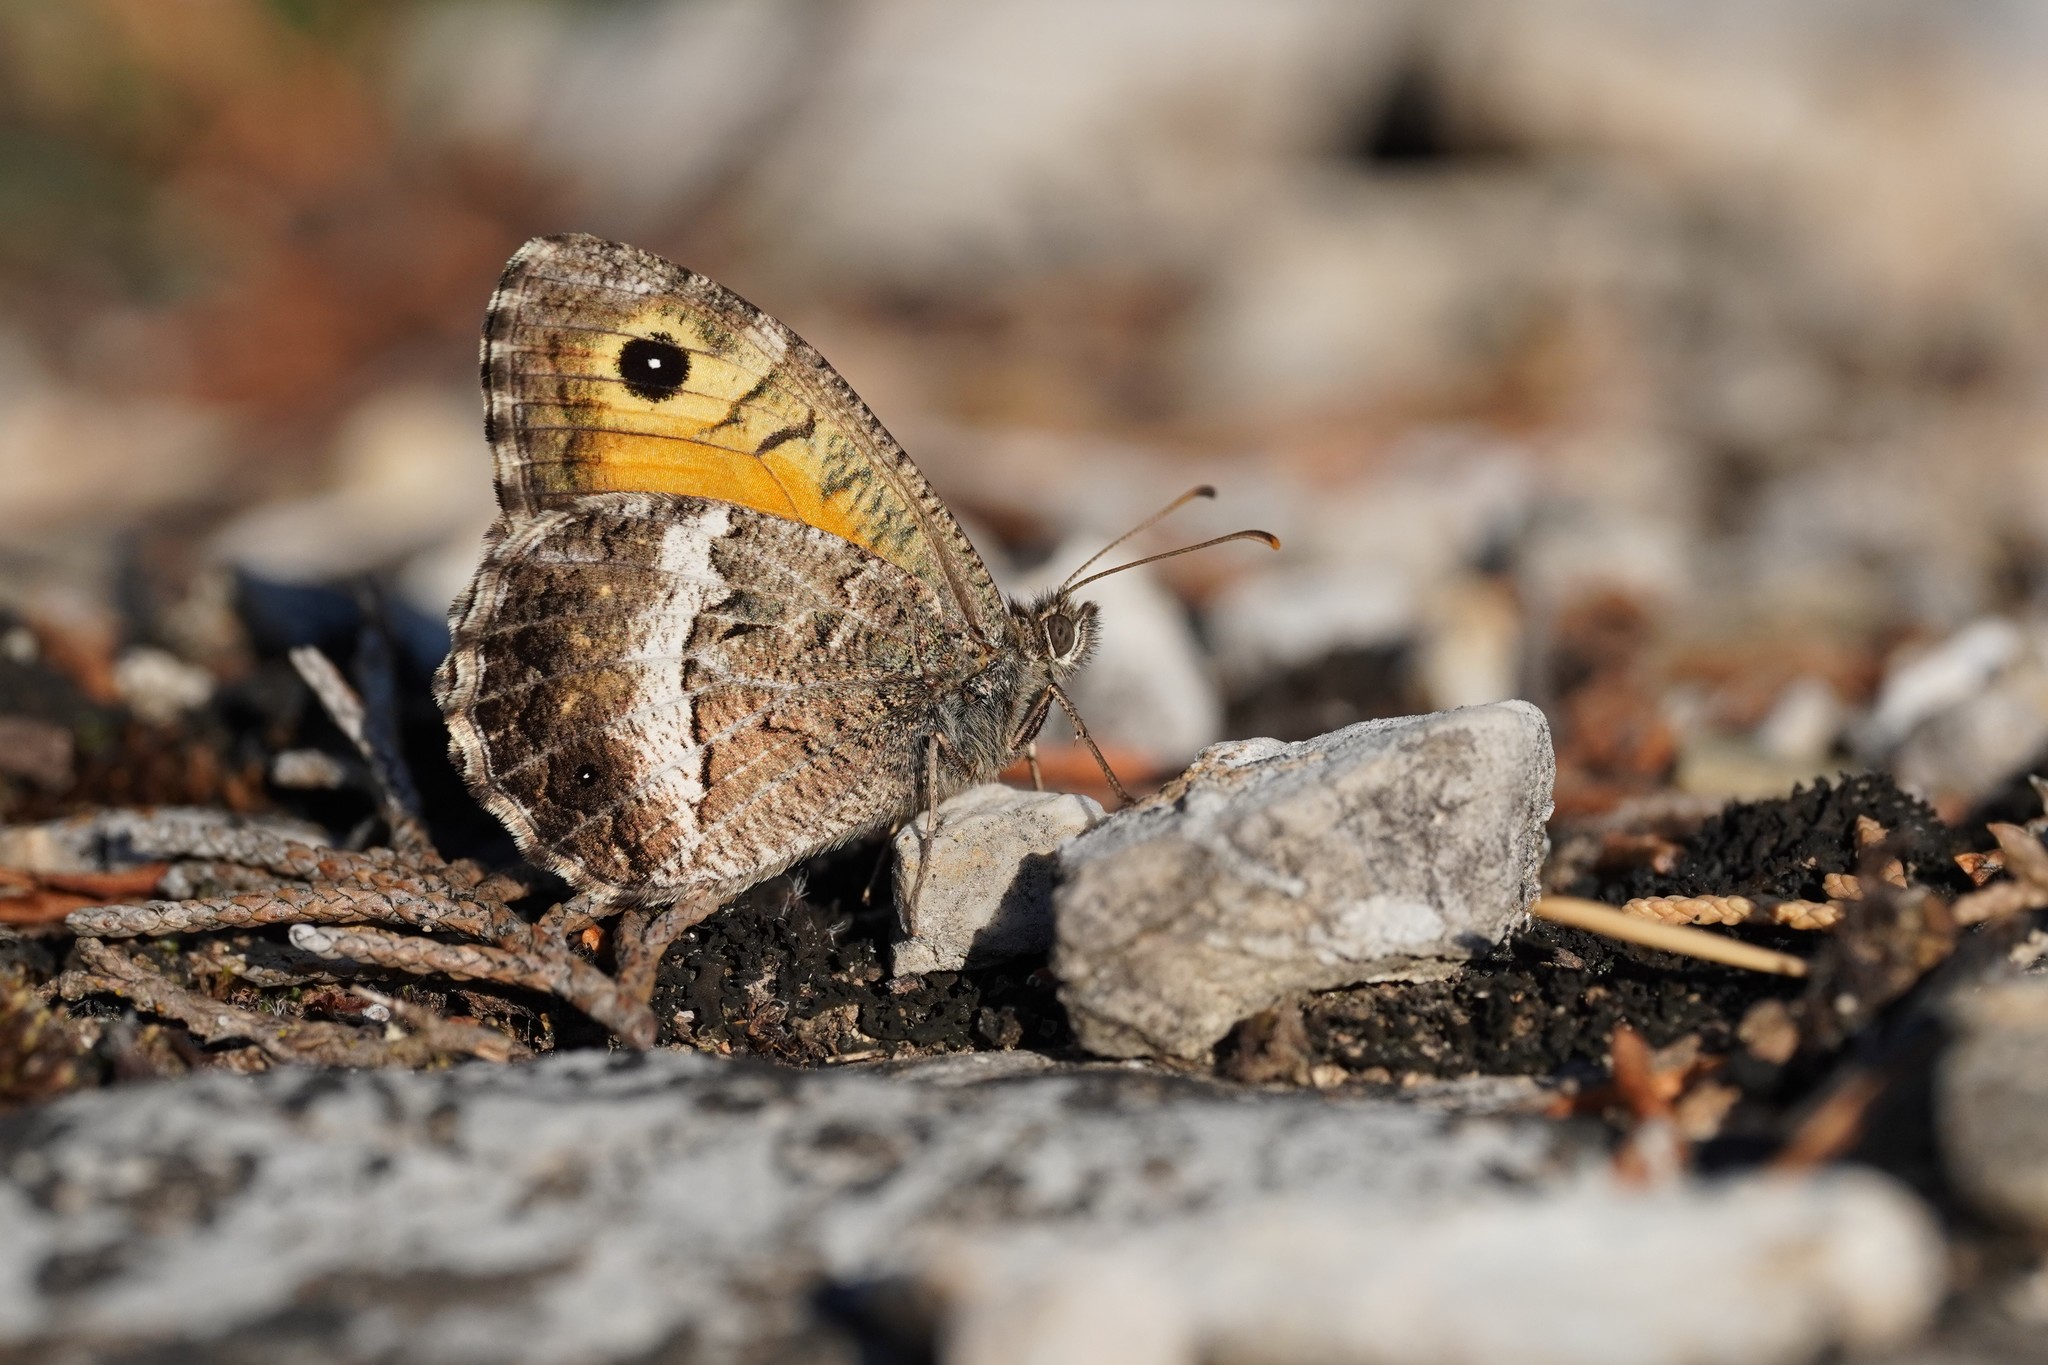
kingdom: Animalia
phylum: Arthropoda
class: Insecta
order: Lepidoptera
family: Nymphalidae
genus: Arethusana
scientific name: Arethusana arethusa
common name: False grayling
